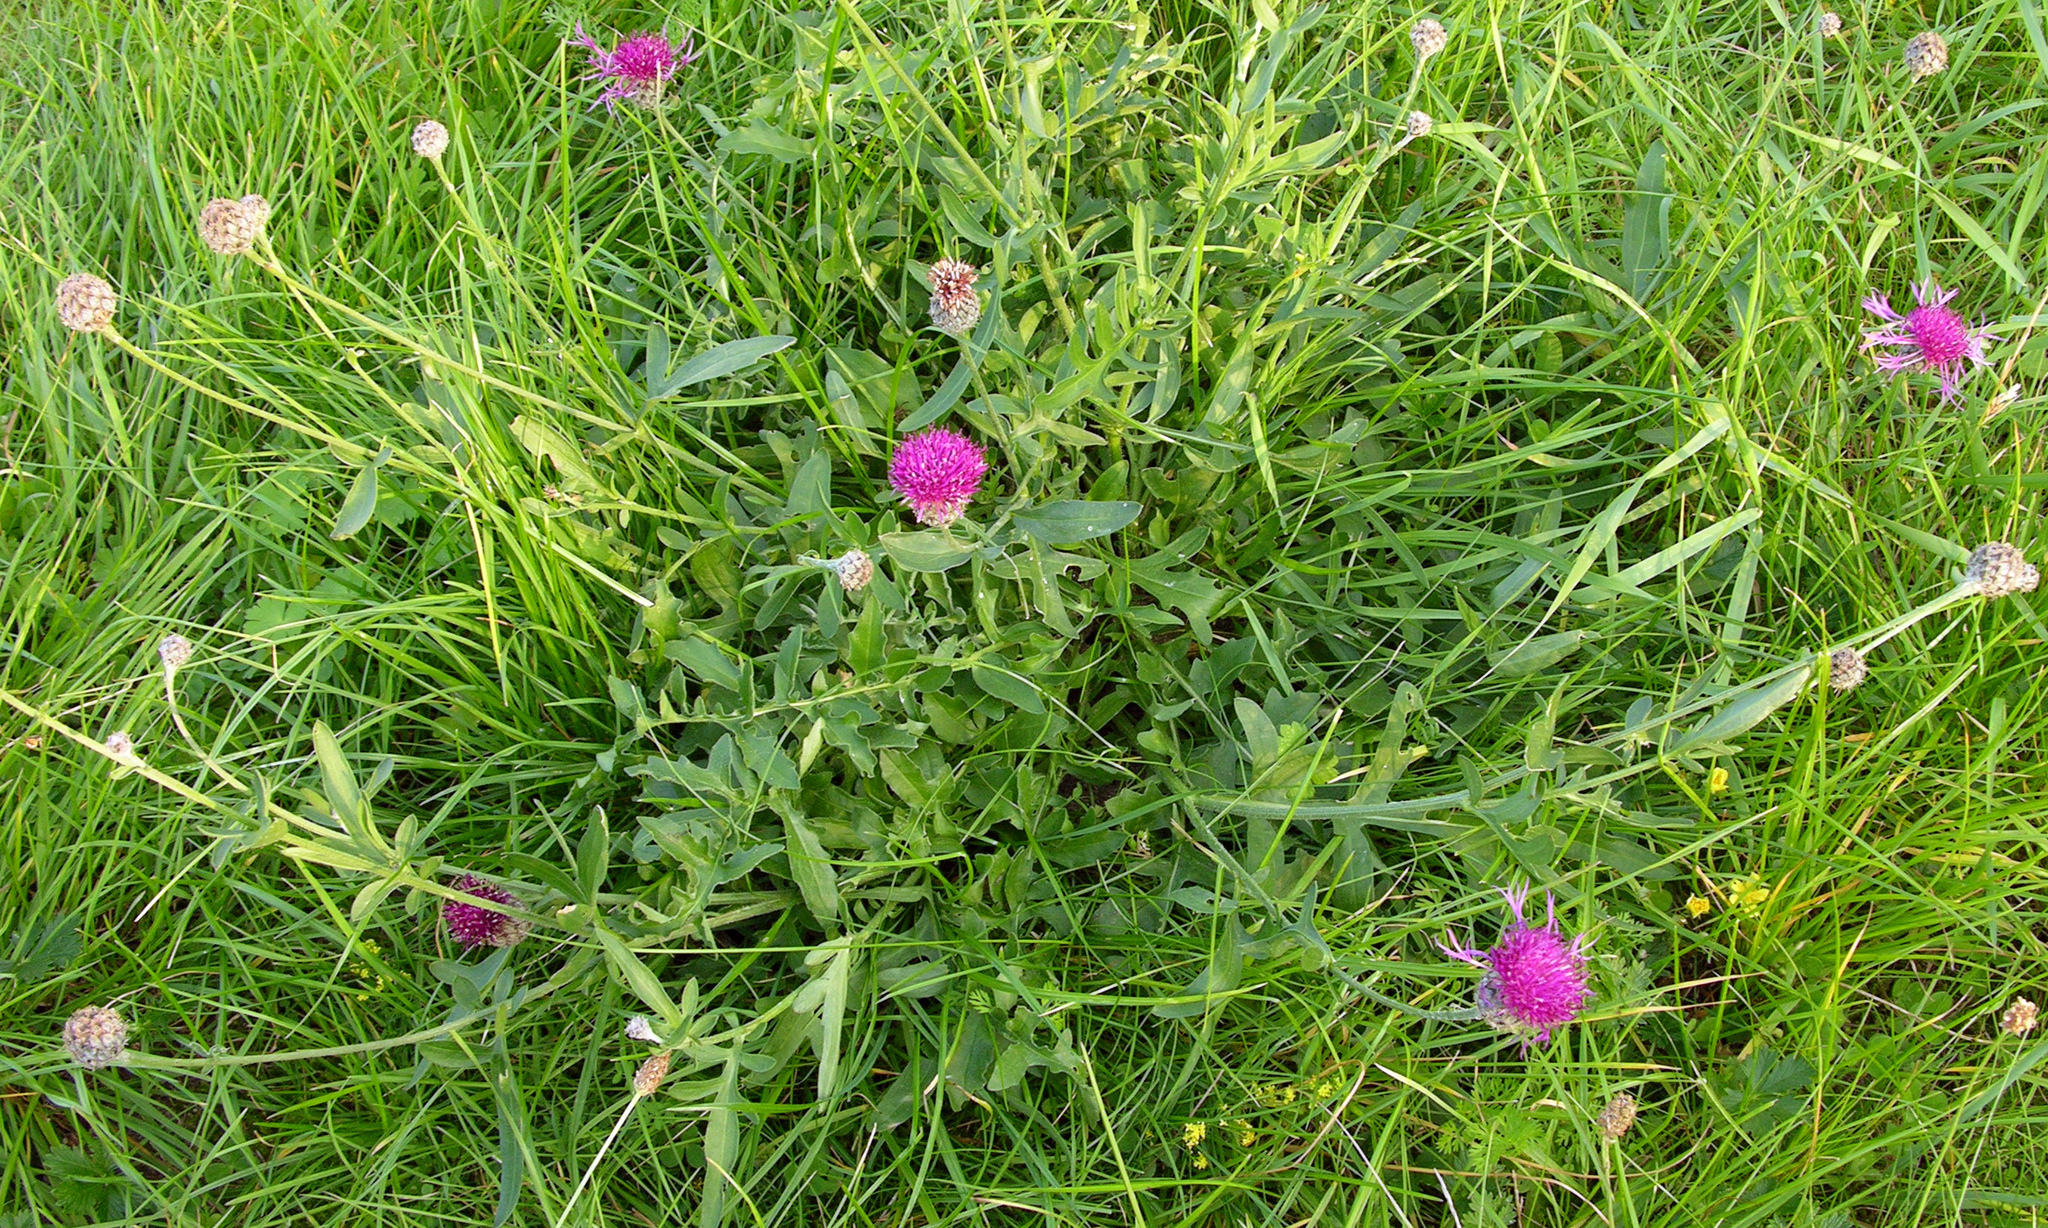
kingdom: Plantae
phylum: Tracheophyta
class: Magnoliopsida
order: Asterales
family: Asteraceae
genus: Centaurea
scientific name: Centaurea scabiosa
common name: Greater knapweed
